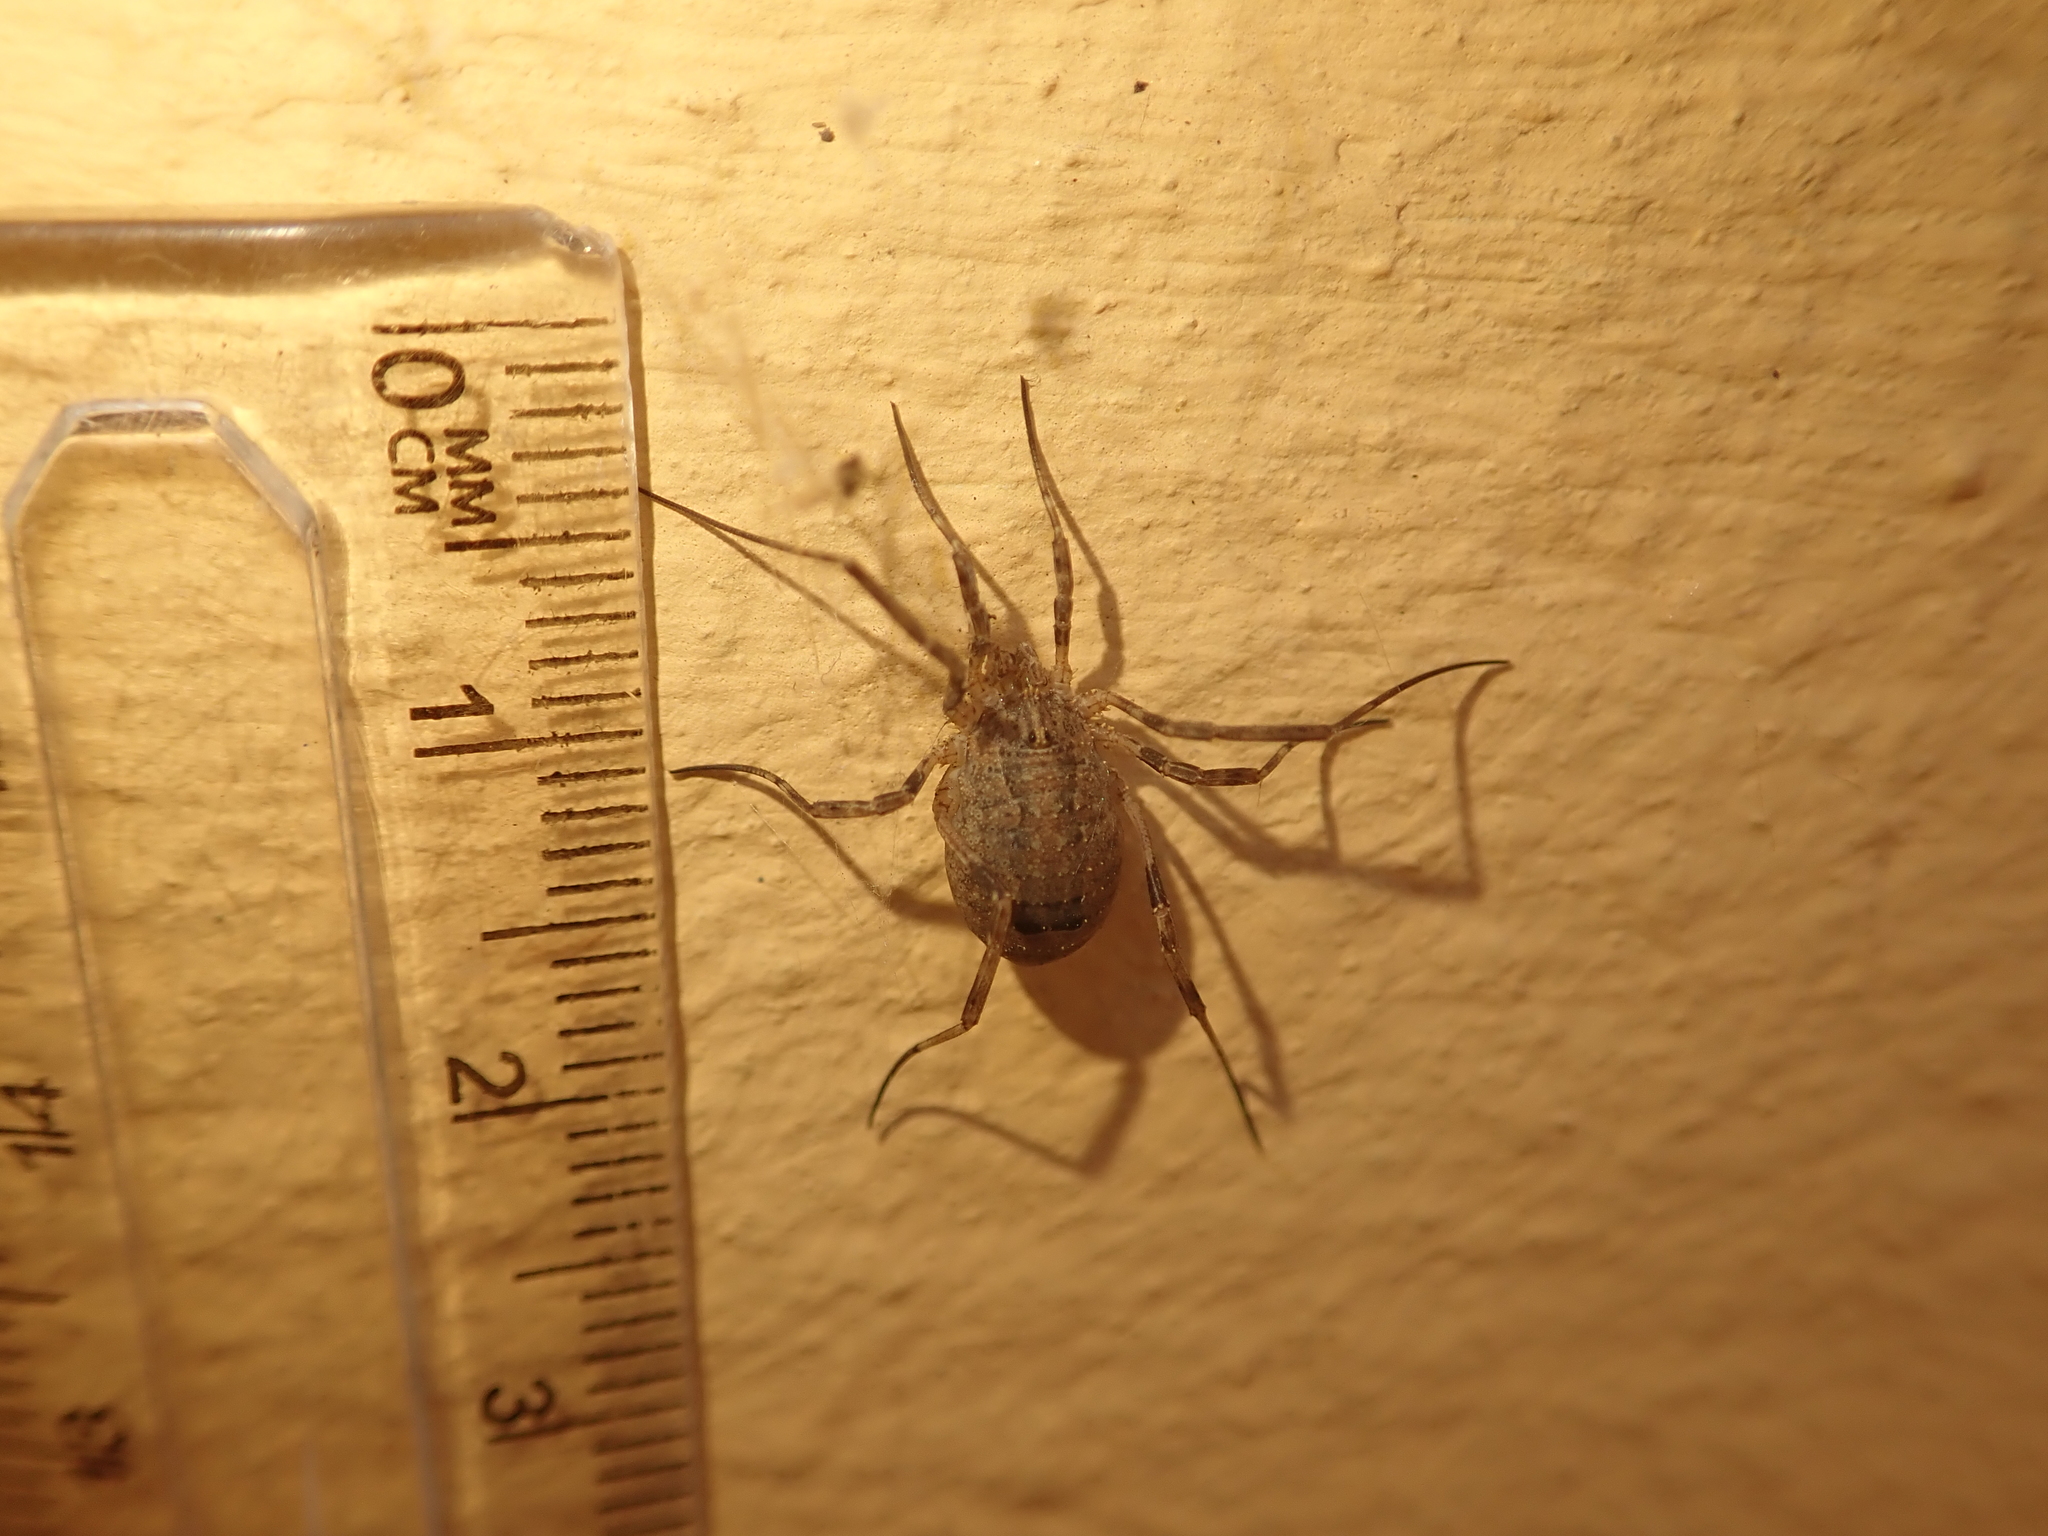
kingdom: Animalia
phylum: Arthropoda
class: Arachnida
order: Opiliones
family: Phalangiidae
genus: Odiellus
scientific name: Odiellus spinosus
